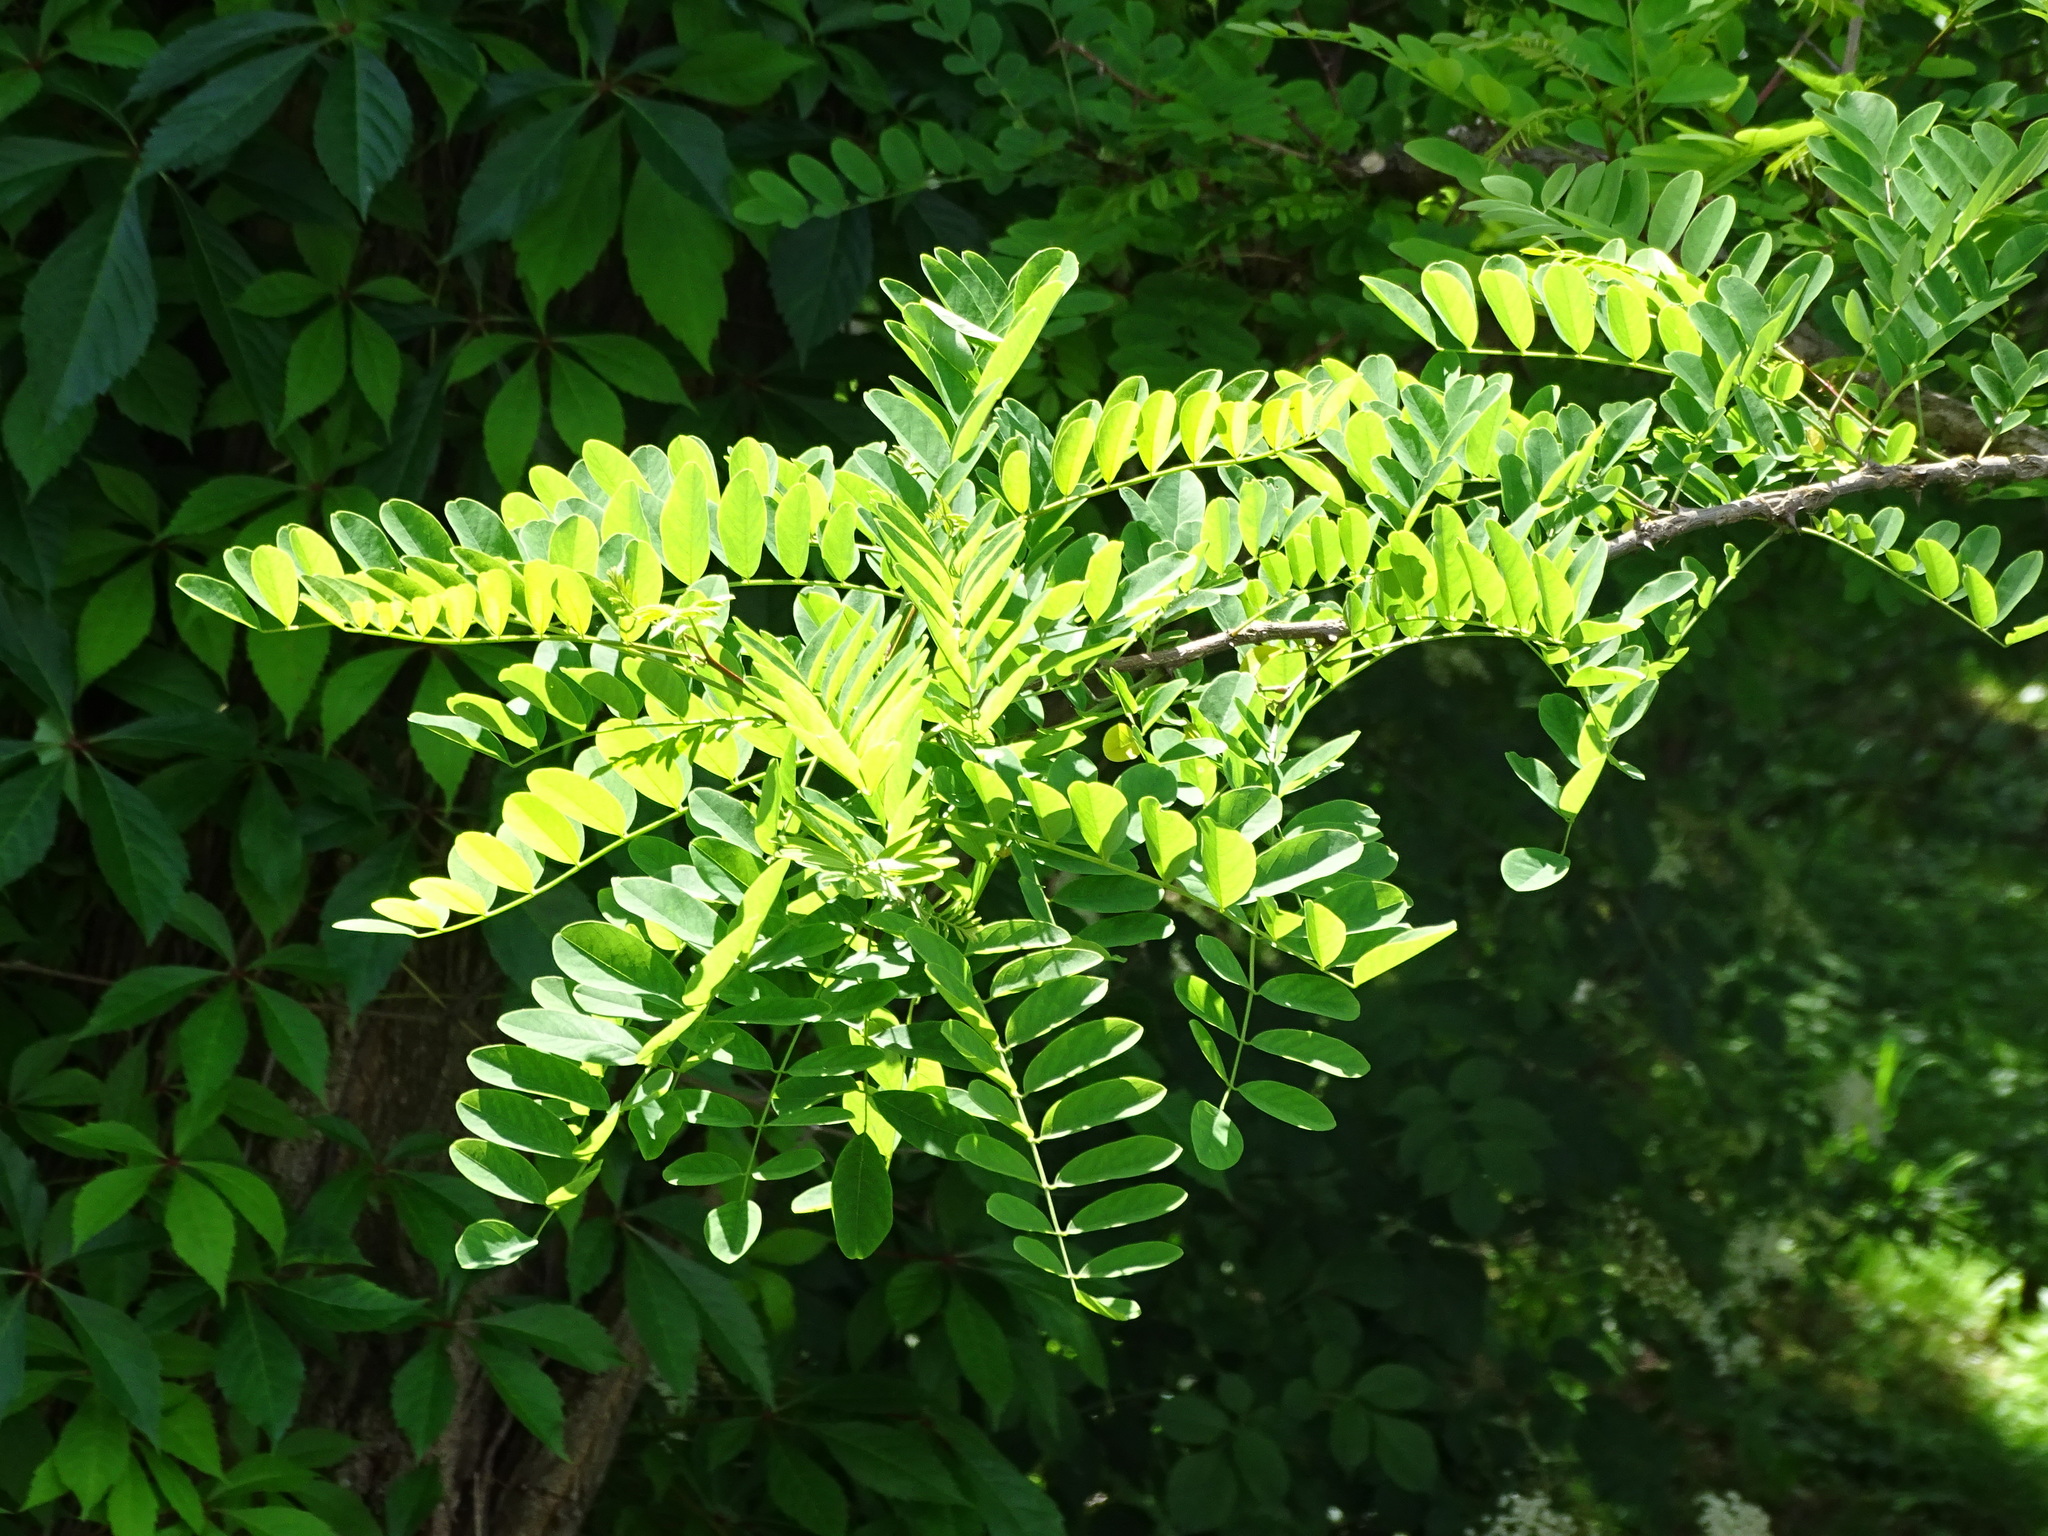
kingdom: Plantae
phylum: Tracheophyta
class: Magnoliopsida
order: Fabales
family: Fabaceae
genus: Robinia
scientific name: Robinia pseudoacacia
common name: Black locust
